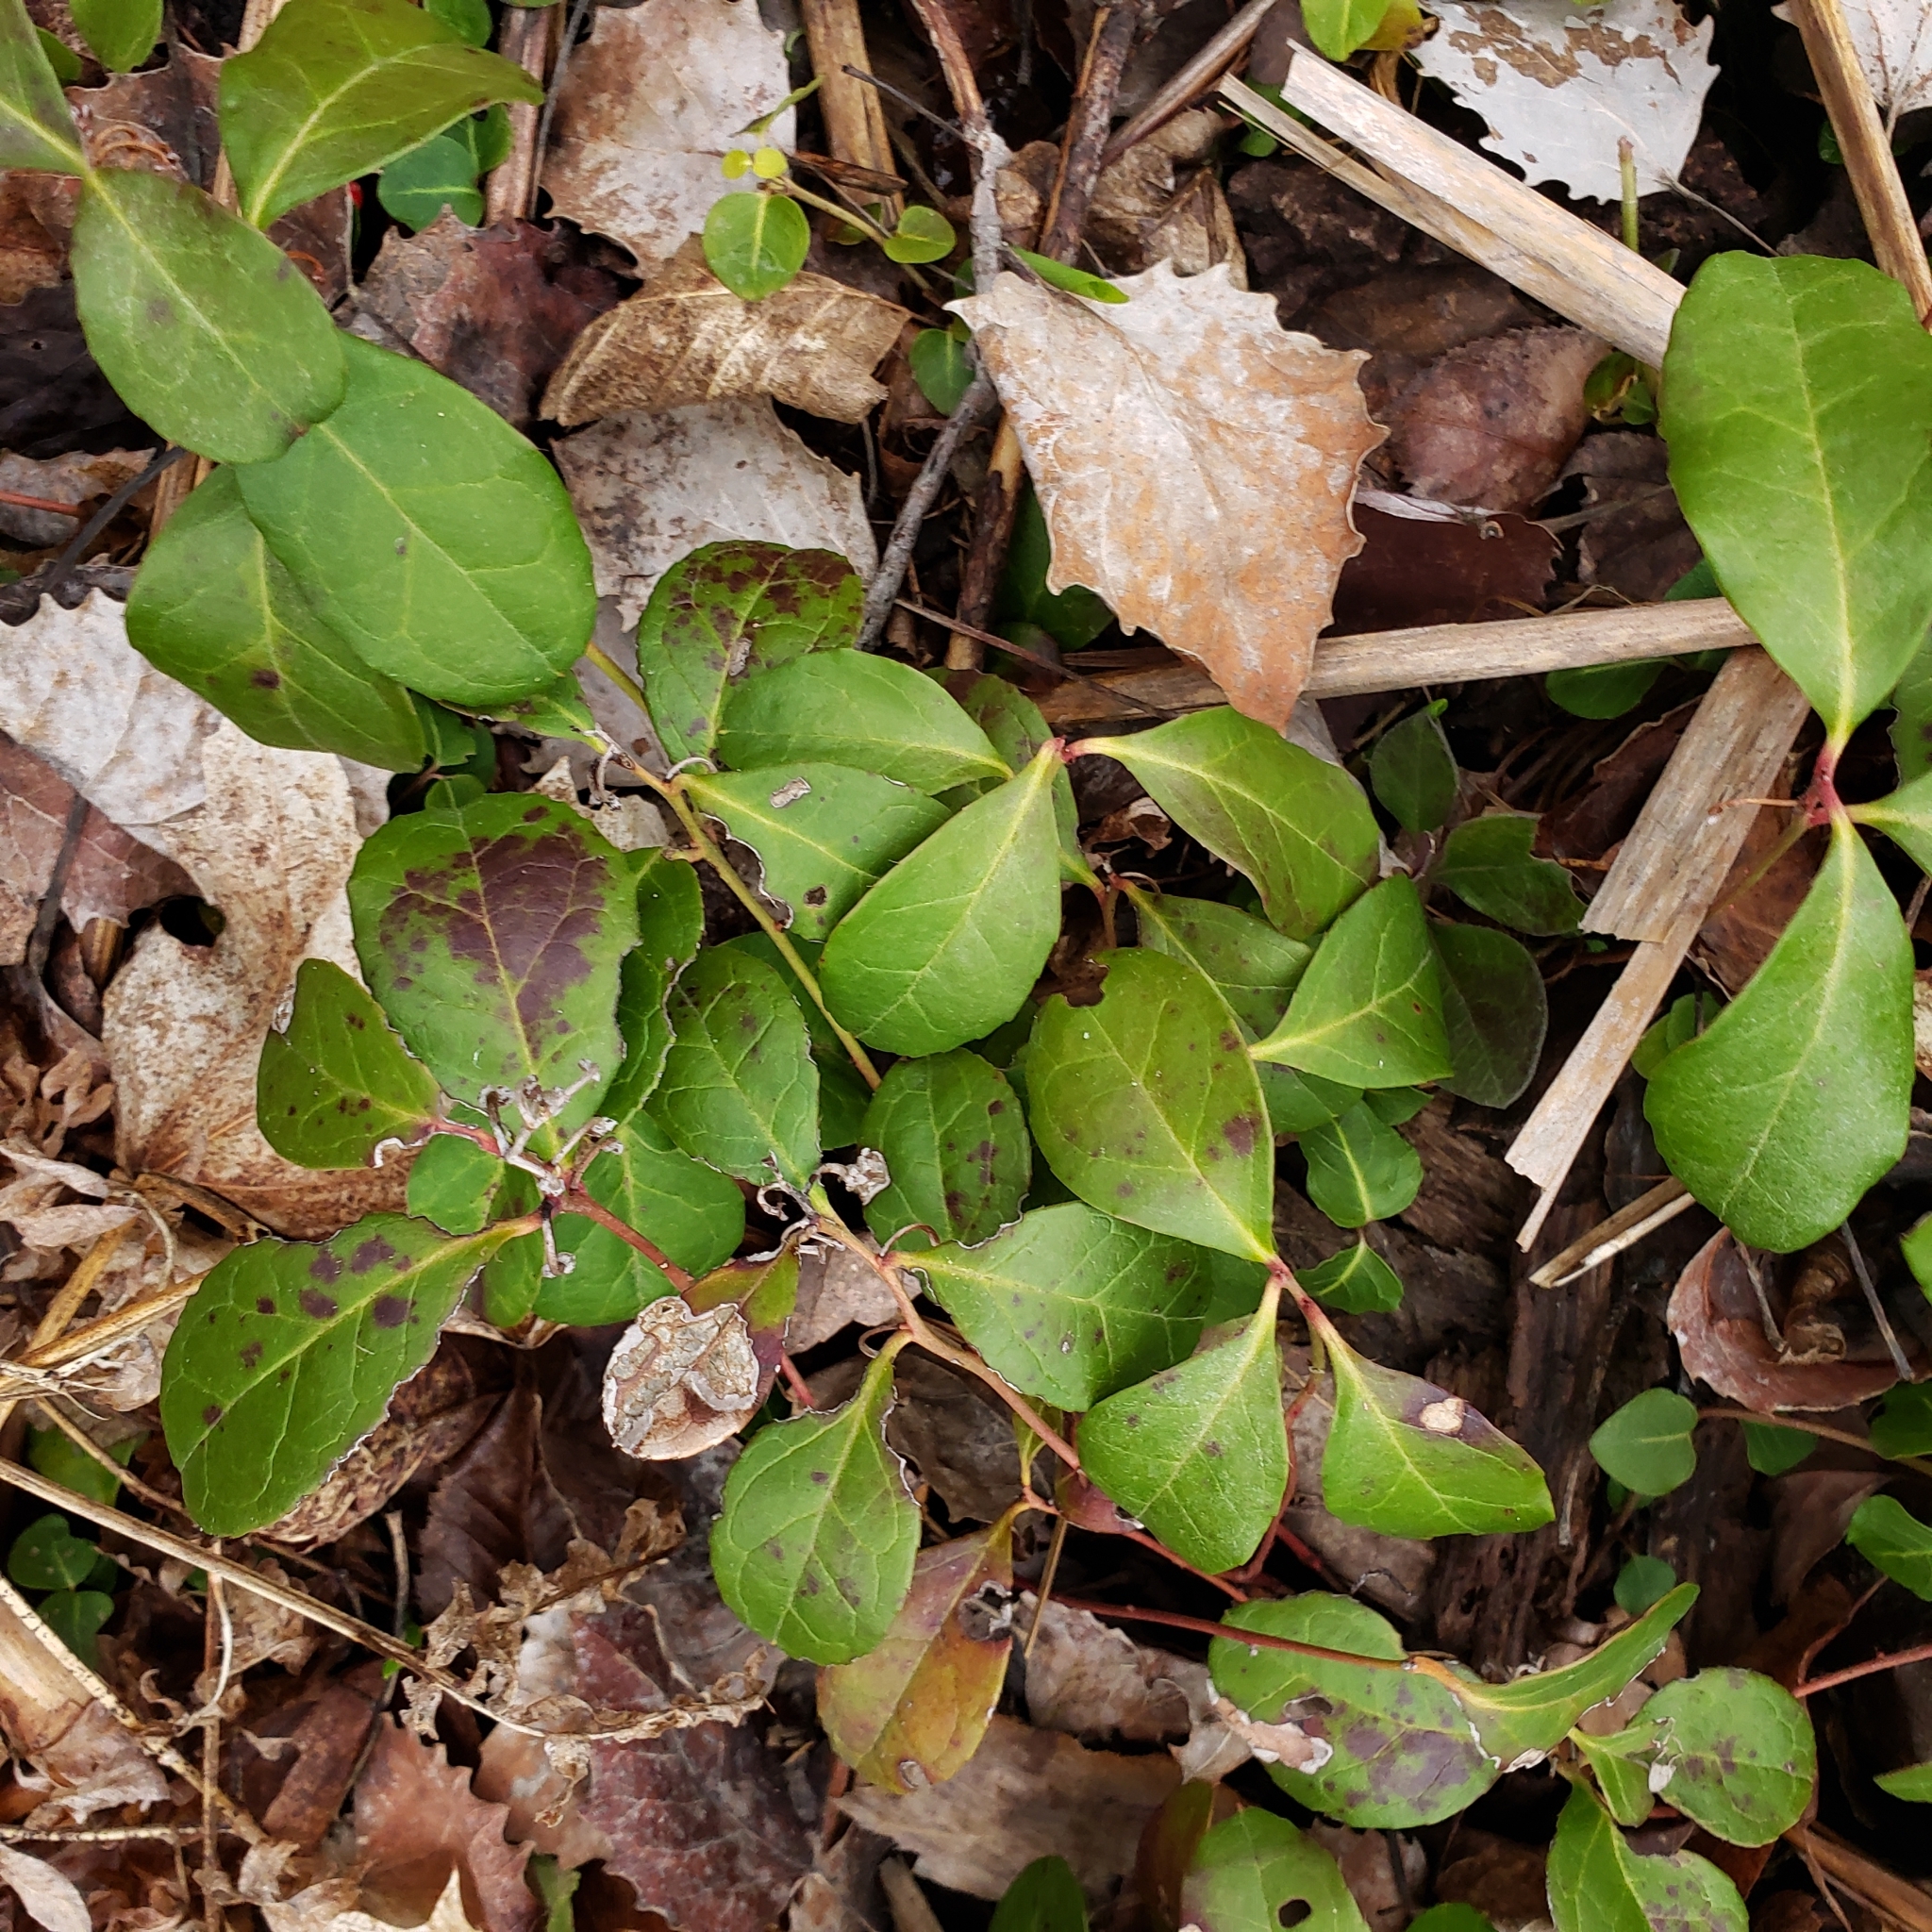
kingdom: Plantae
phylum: Tracheophyta
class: Magnoliopsida
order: Ericales
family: Ericaceae
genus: Gaultheria
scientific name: Gaultheria procumbens
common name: Checkerberry
